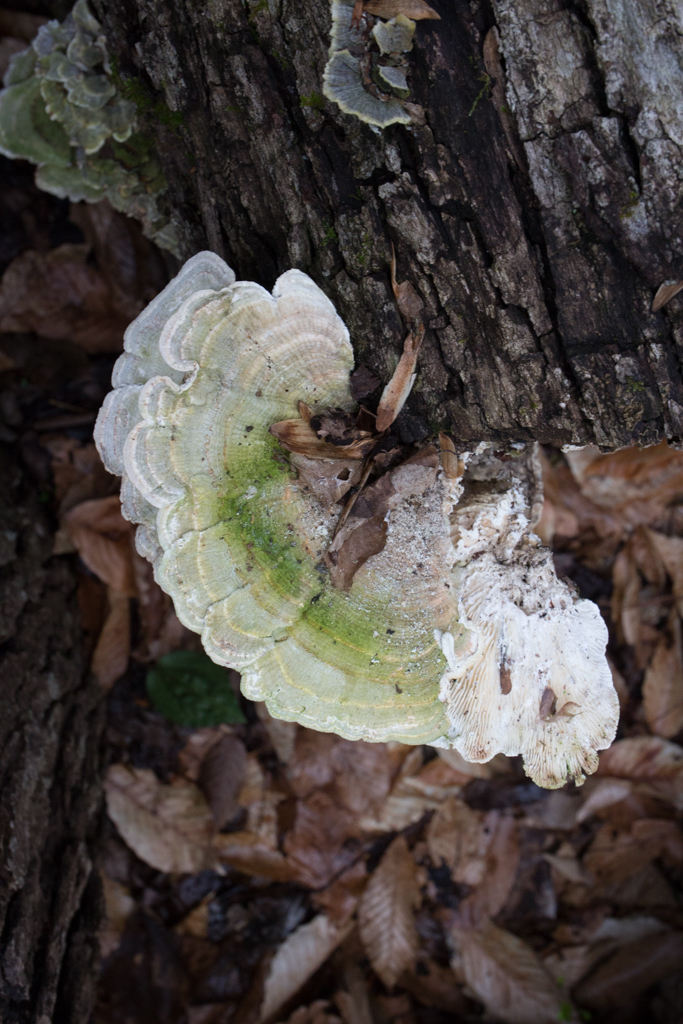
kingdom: Fungi
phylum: Basidiomycota
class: Agaricomycetes
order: Polyporales
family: Polyporaceae
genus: Lenzites
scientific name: Lenzites betulinus
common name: Birch mazegill
